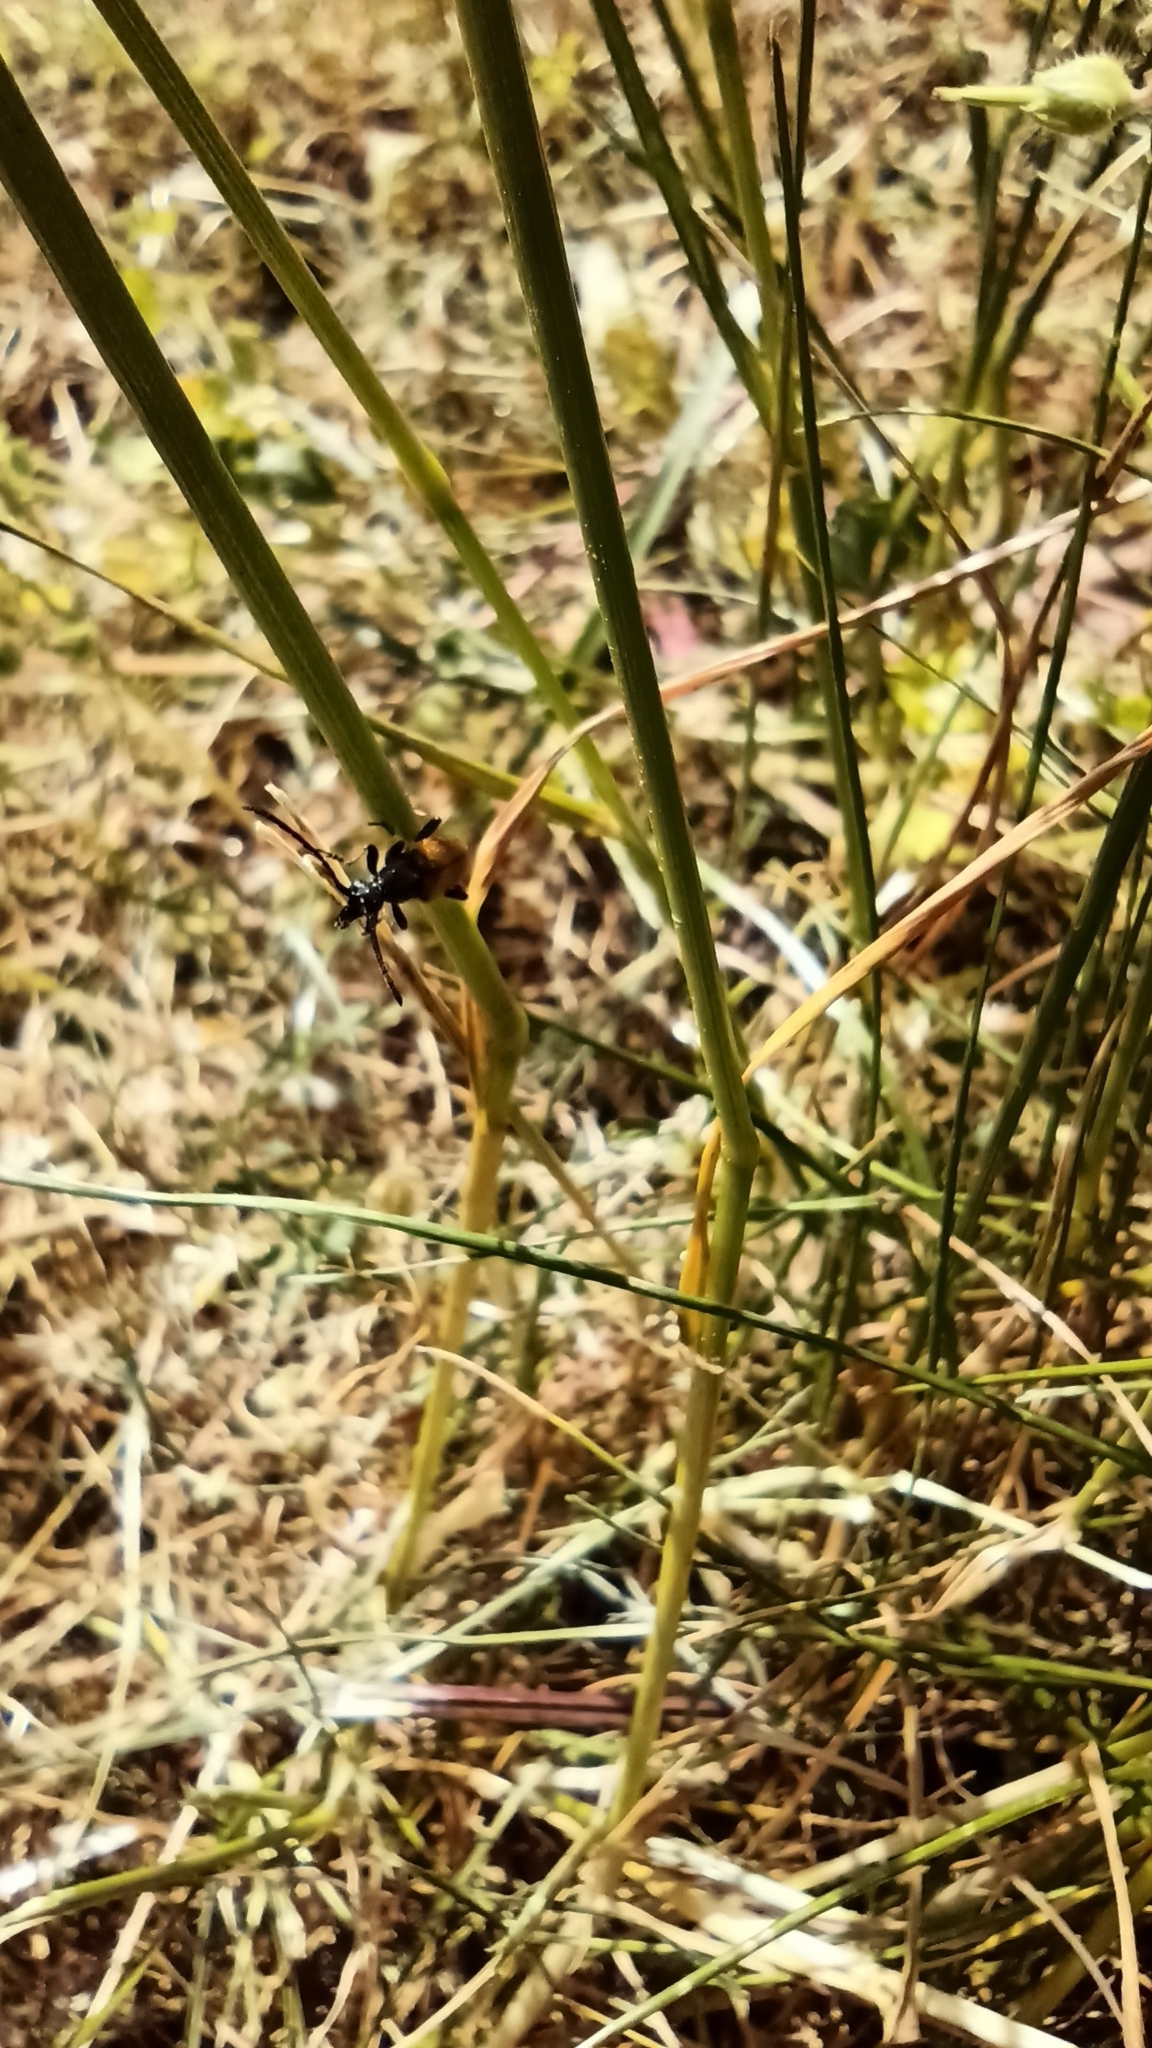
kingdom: Animalia
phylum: Arthropoda
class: Insecta
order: Coleoptera
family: Cerambycidae
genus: Pseudovadonia
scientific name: Pseudovadonia livida
